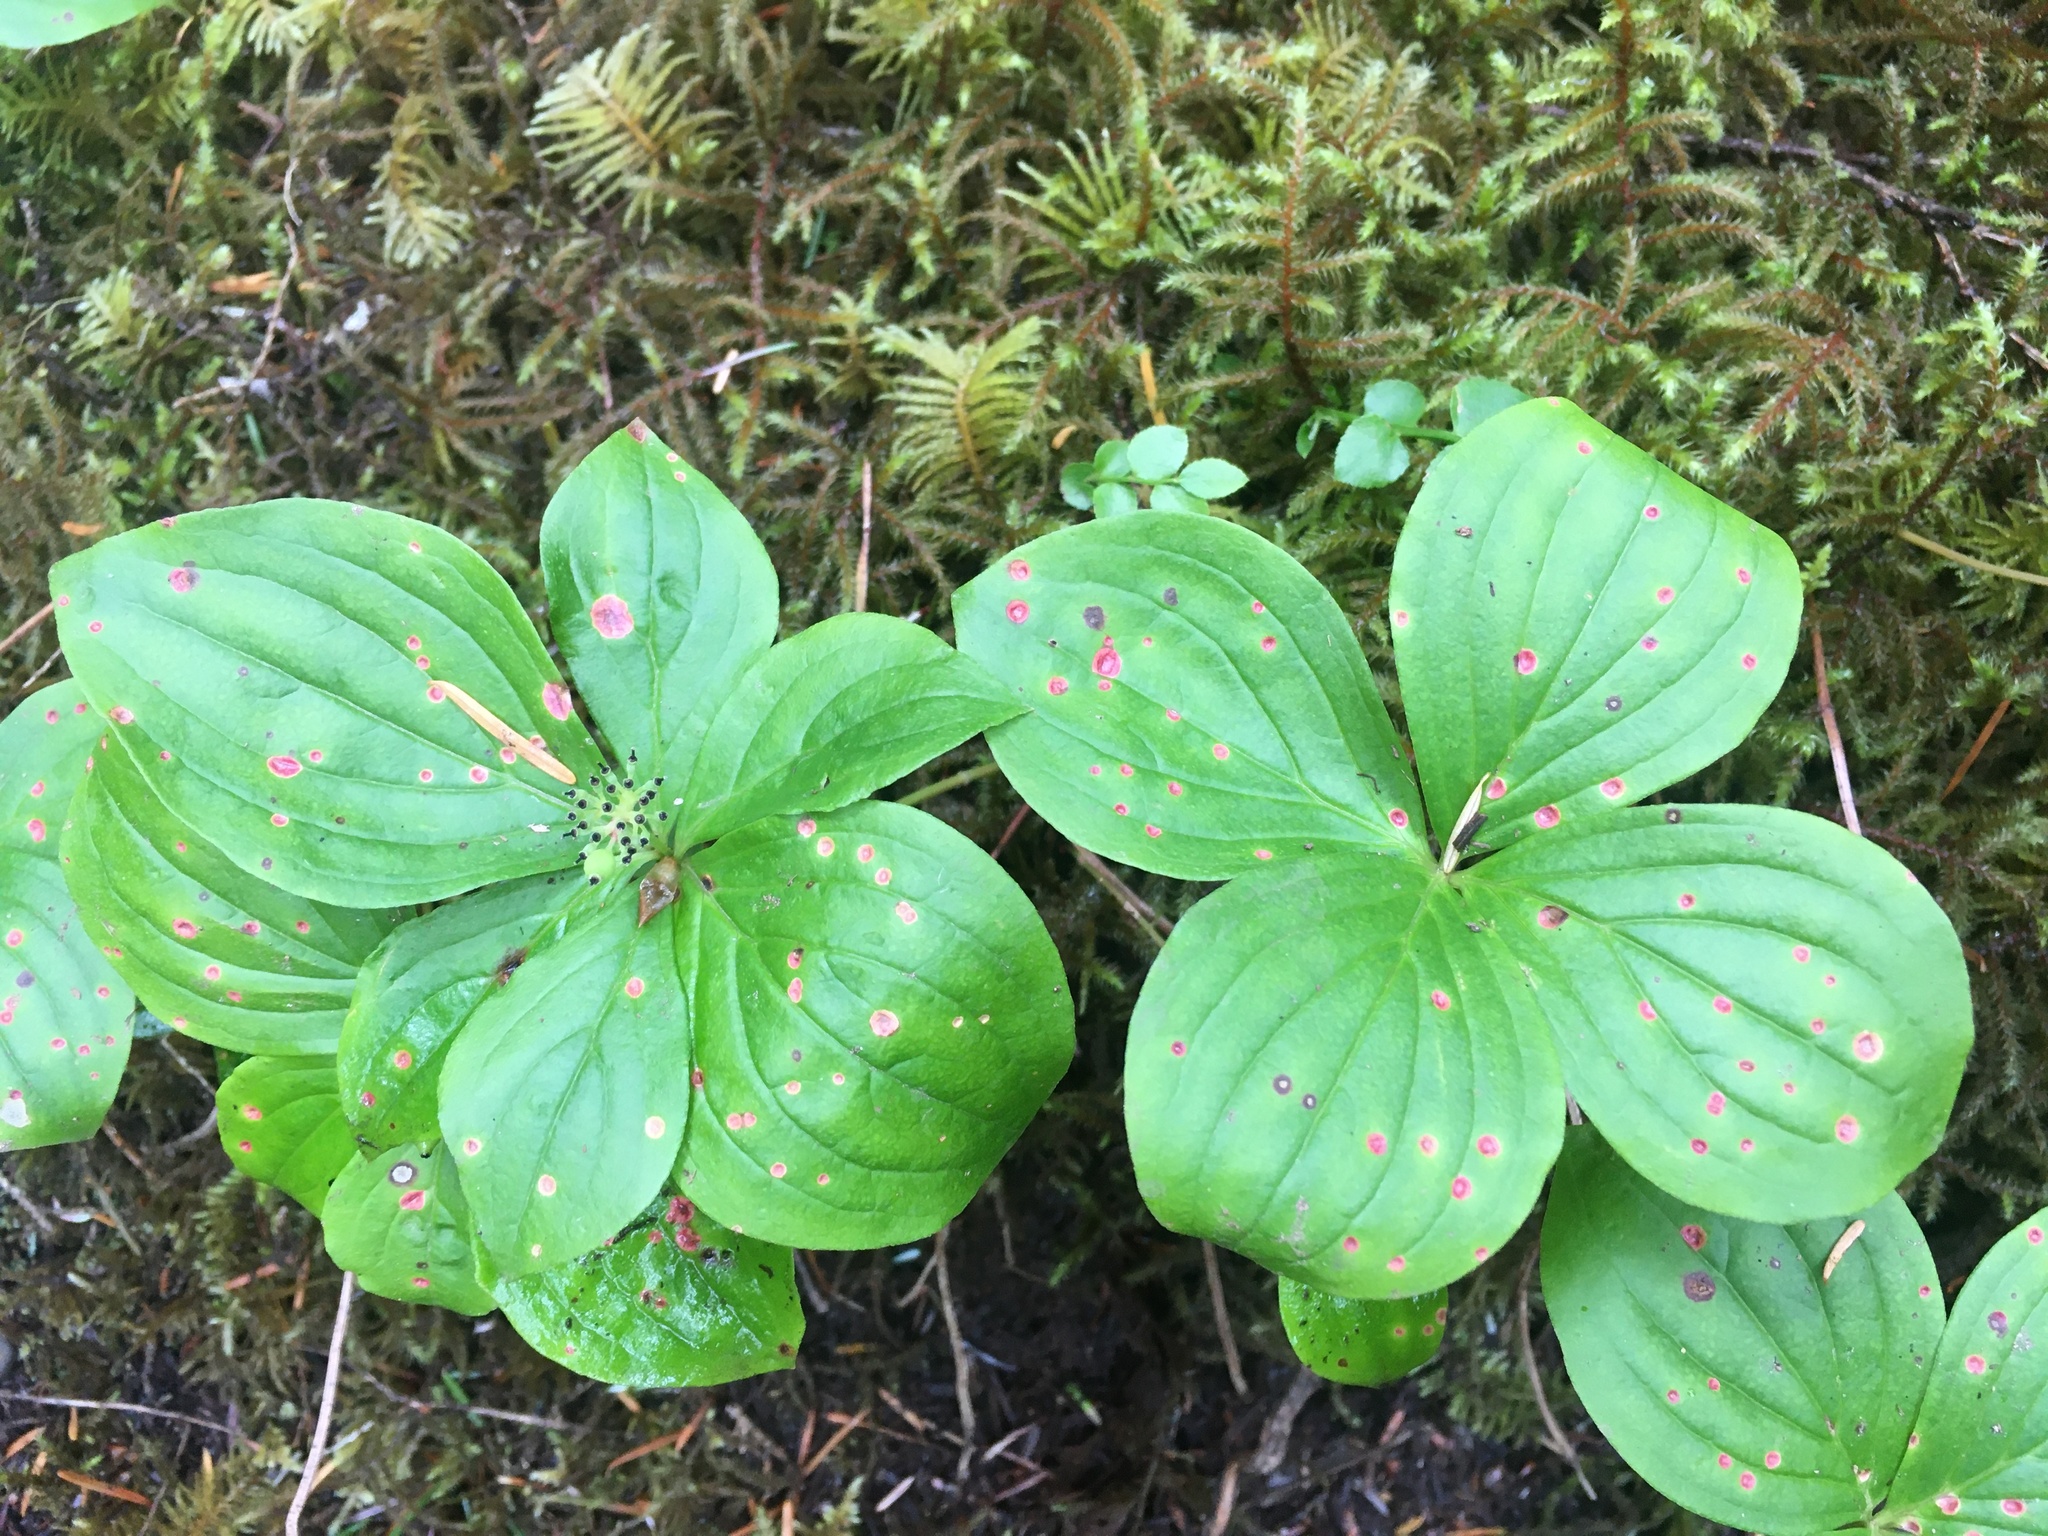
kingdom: Plantae
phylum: Tracheophyta
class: Magnoliopsida
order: Cornales
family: Cornaceae
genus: Cornus
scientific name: Cornus unalaschkensis
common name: Alaska bunchberry
